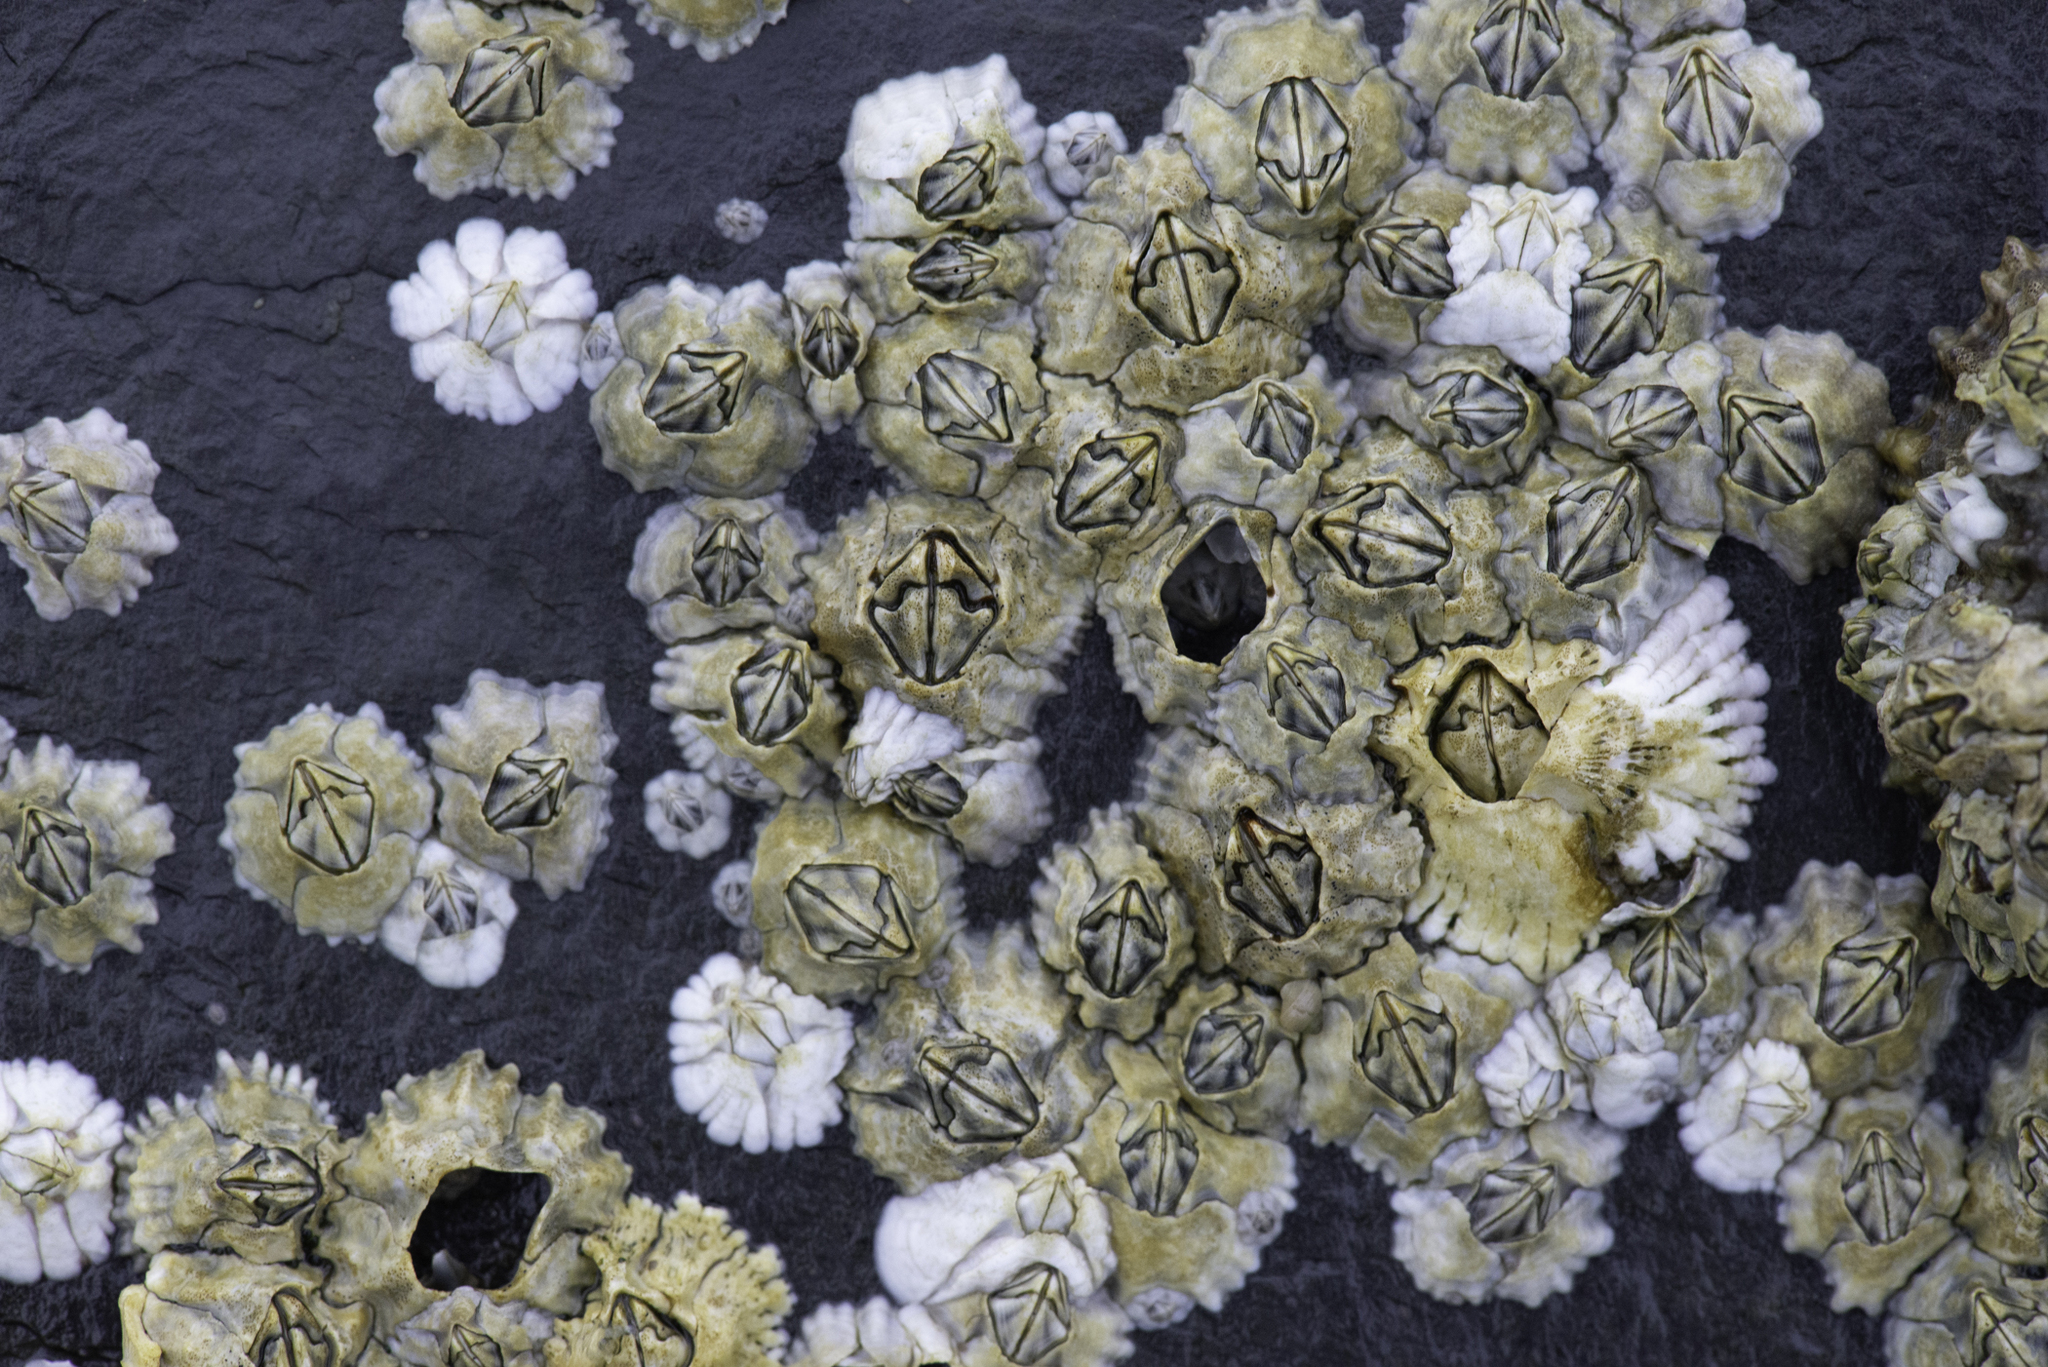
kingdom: Animalia
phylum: Arthropoda
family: Elminiidae
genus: Austrominius
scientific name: Austrominius modestus
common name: Australasian barnacle
